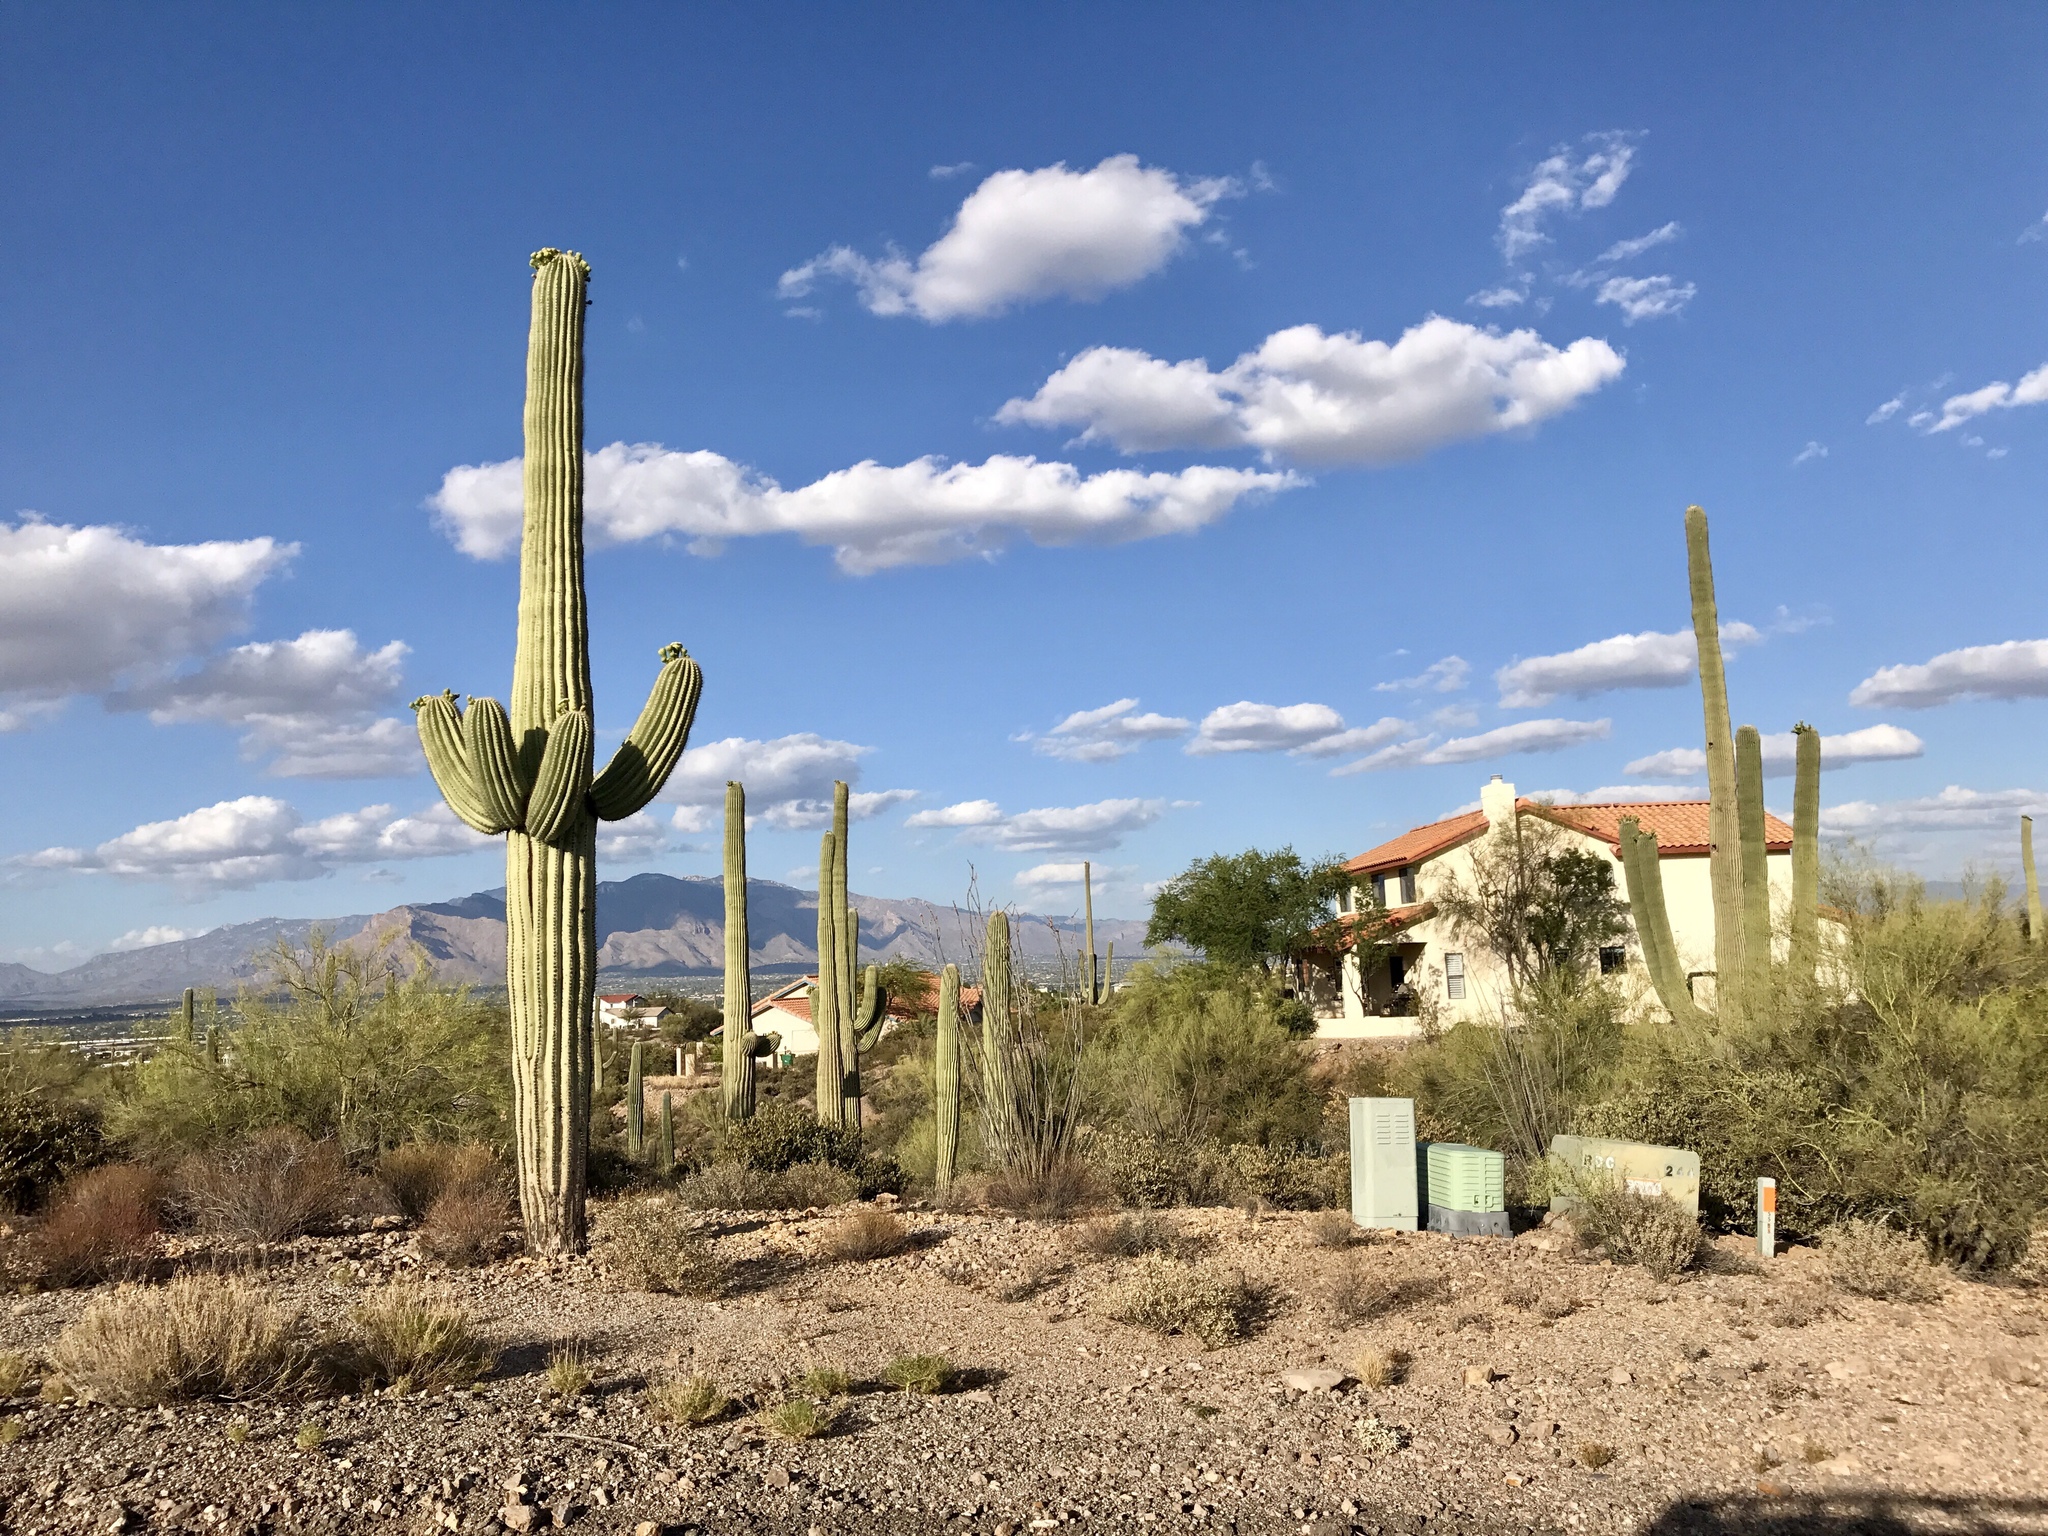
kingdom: Plantae
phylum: Tracheophyta
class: Magnoliopsida
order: Caryophyllales
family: Cactaceae
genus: Carnegiea
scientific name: Carnegiea gigantea
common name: Saguaro
